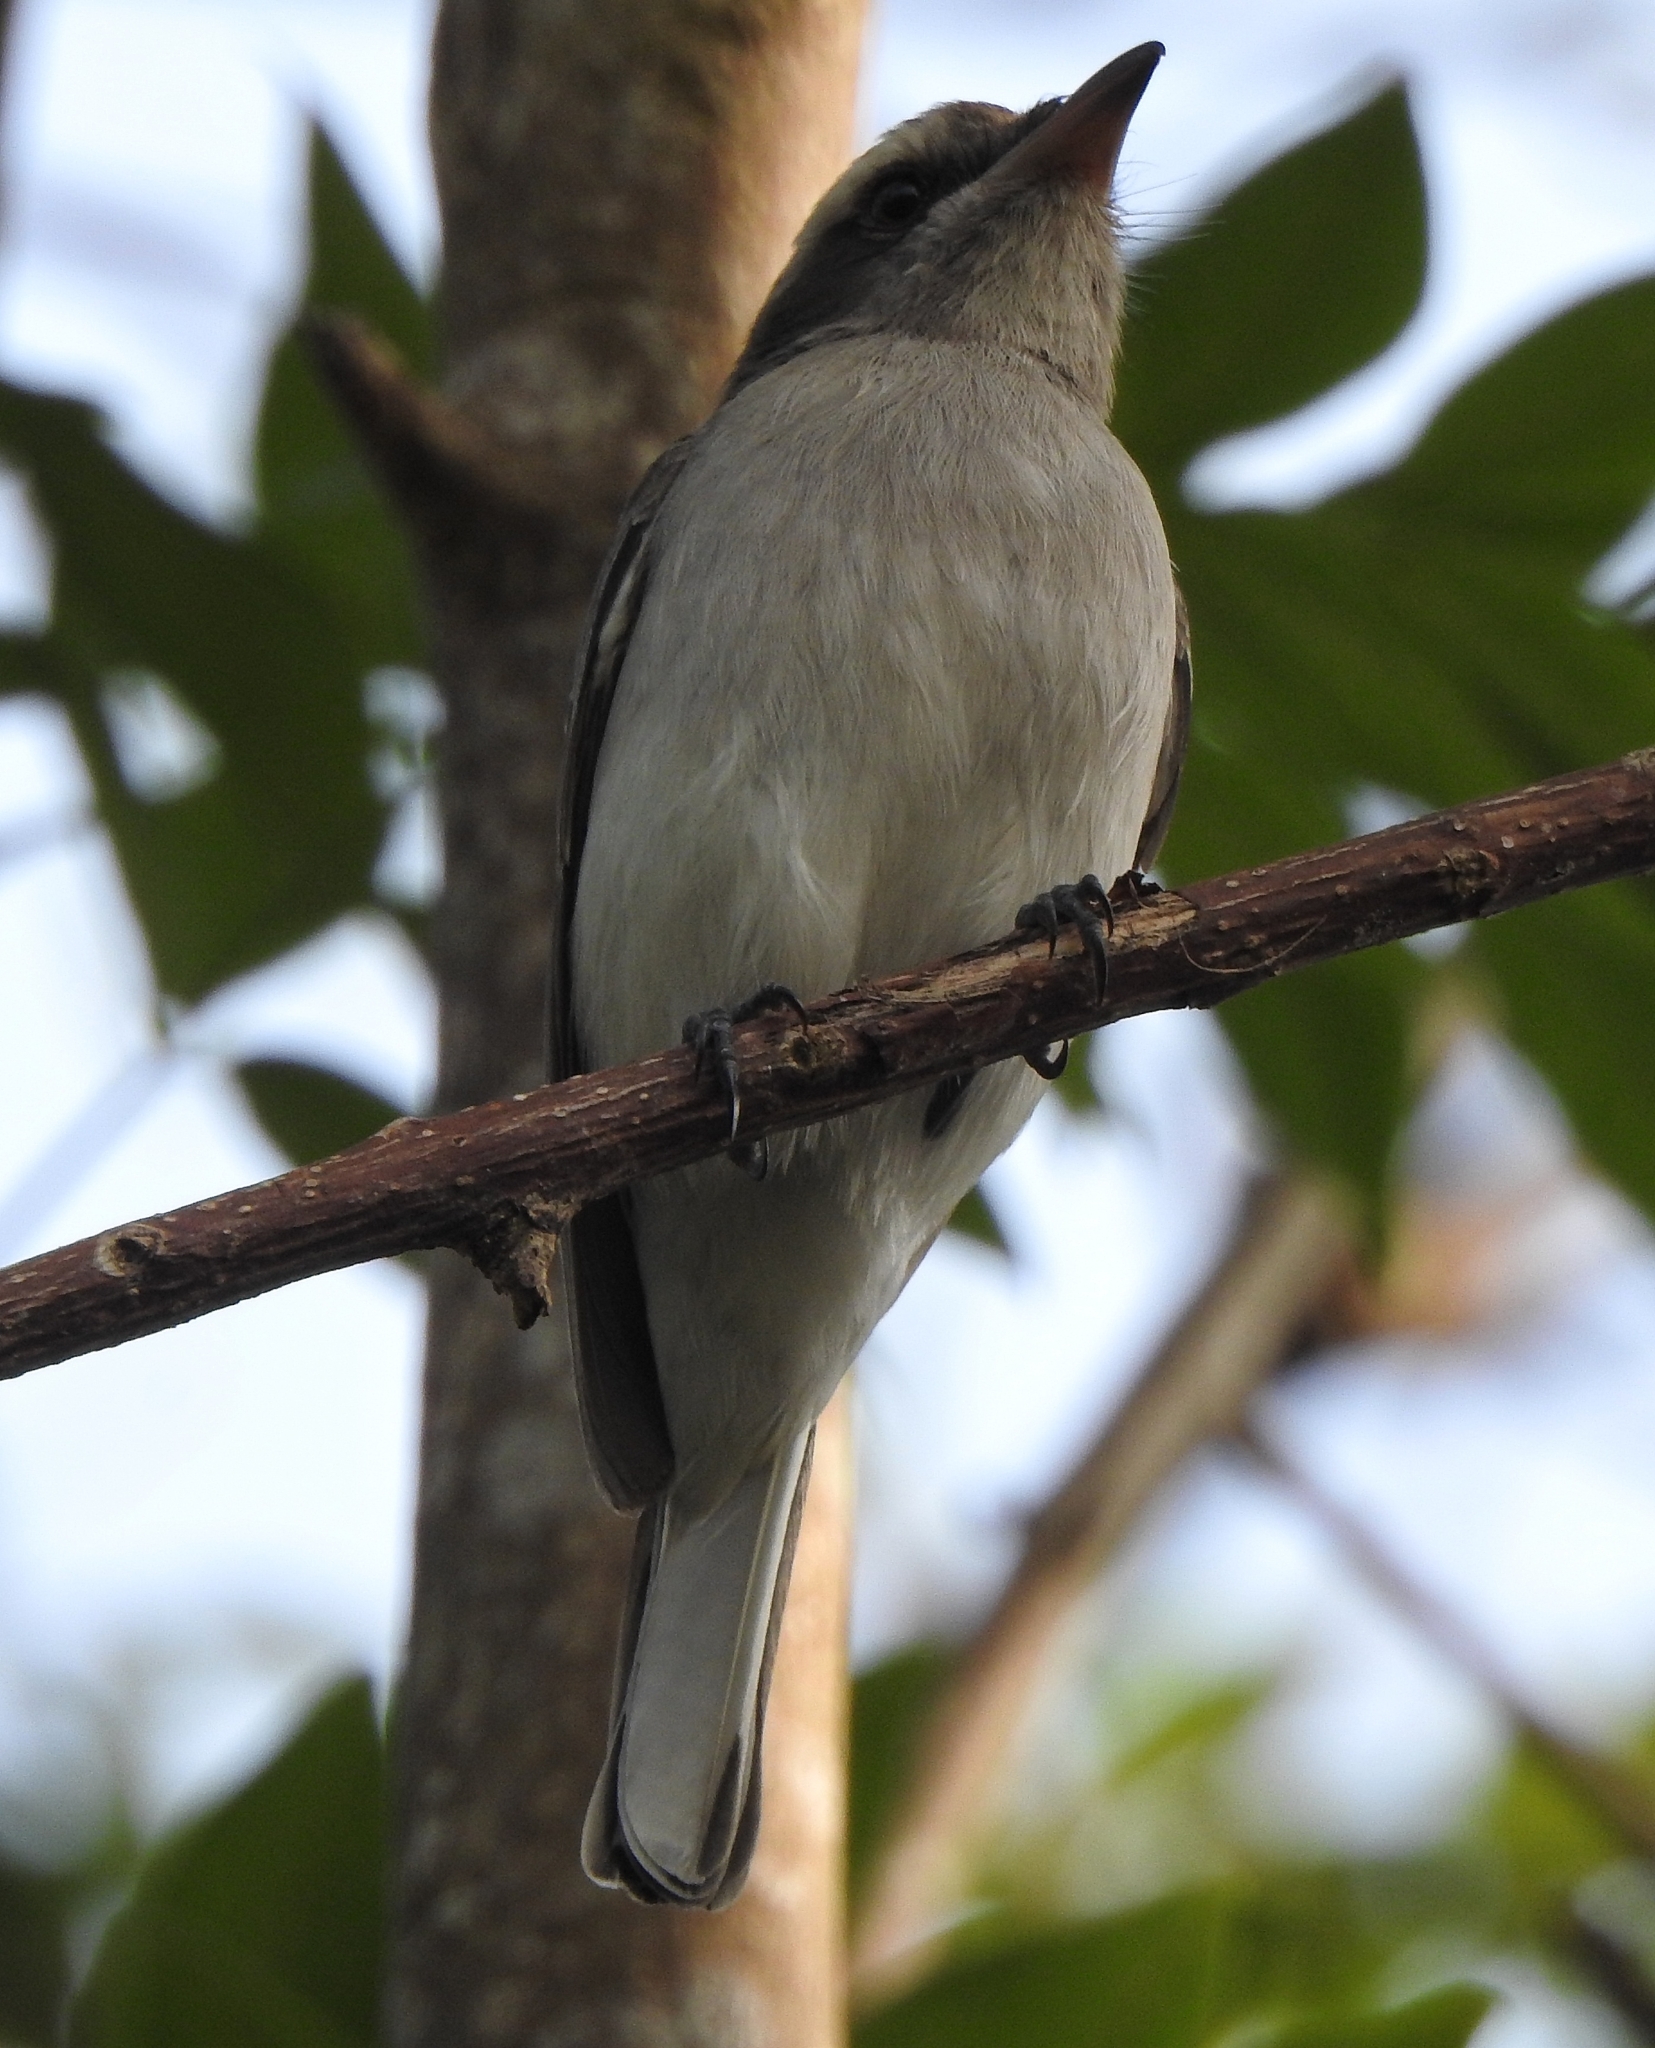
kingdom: Animalia
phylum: Chordata
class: Aves
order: Passeriformes
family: Tephrodornithidae
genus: Tephrodornis
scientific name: Tephrodornis pondicerianus
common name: Common woodshrike
